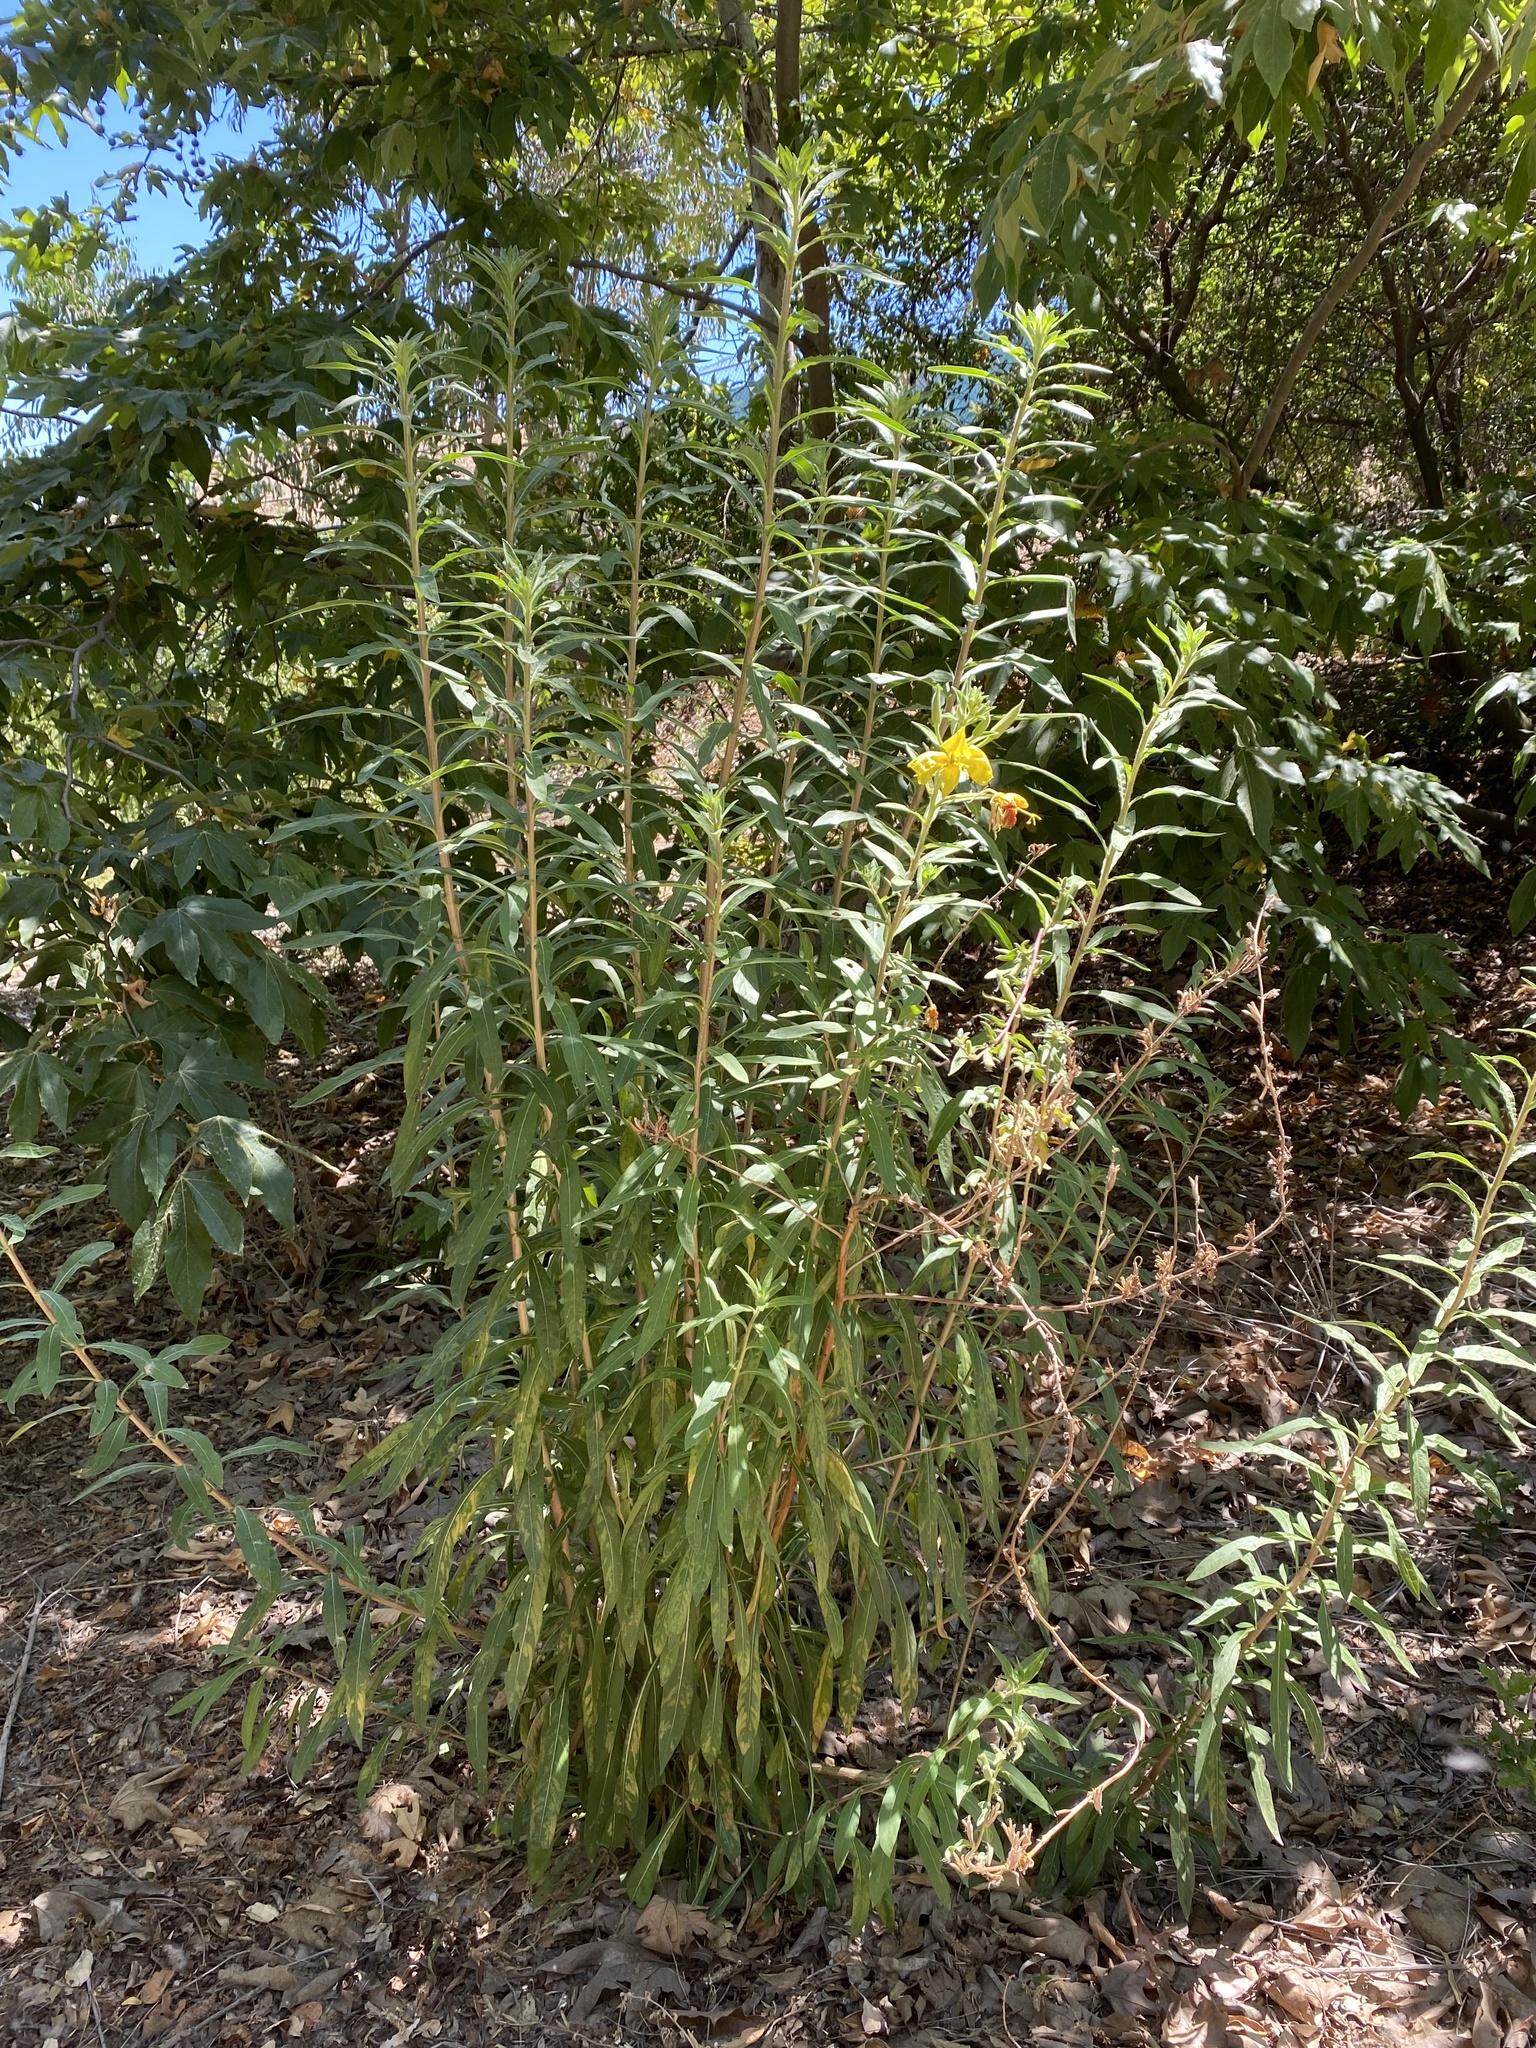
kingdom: Plantae
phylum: Tracheophyta
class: Magnoliopsida
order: Myrtales
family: Onagraceae
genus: Oenothera
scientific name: Oenothera elata
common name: Hooker's evening-primrose
